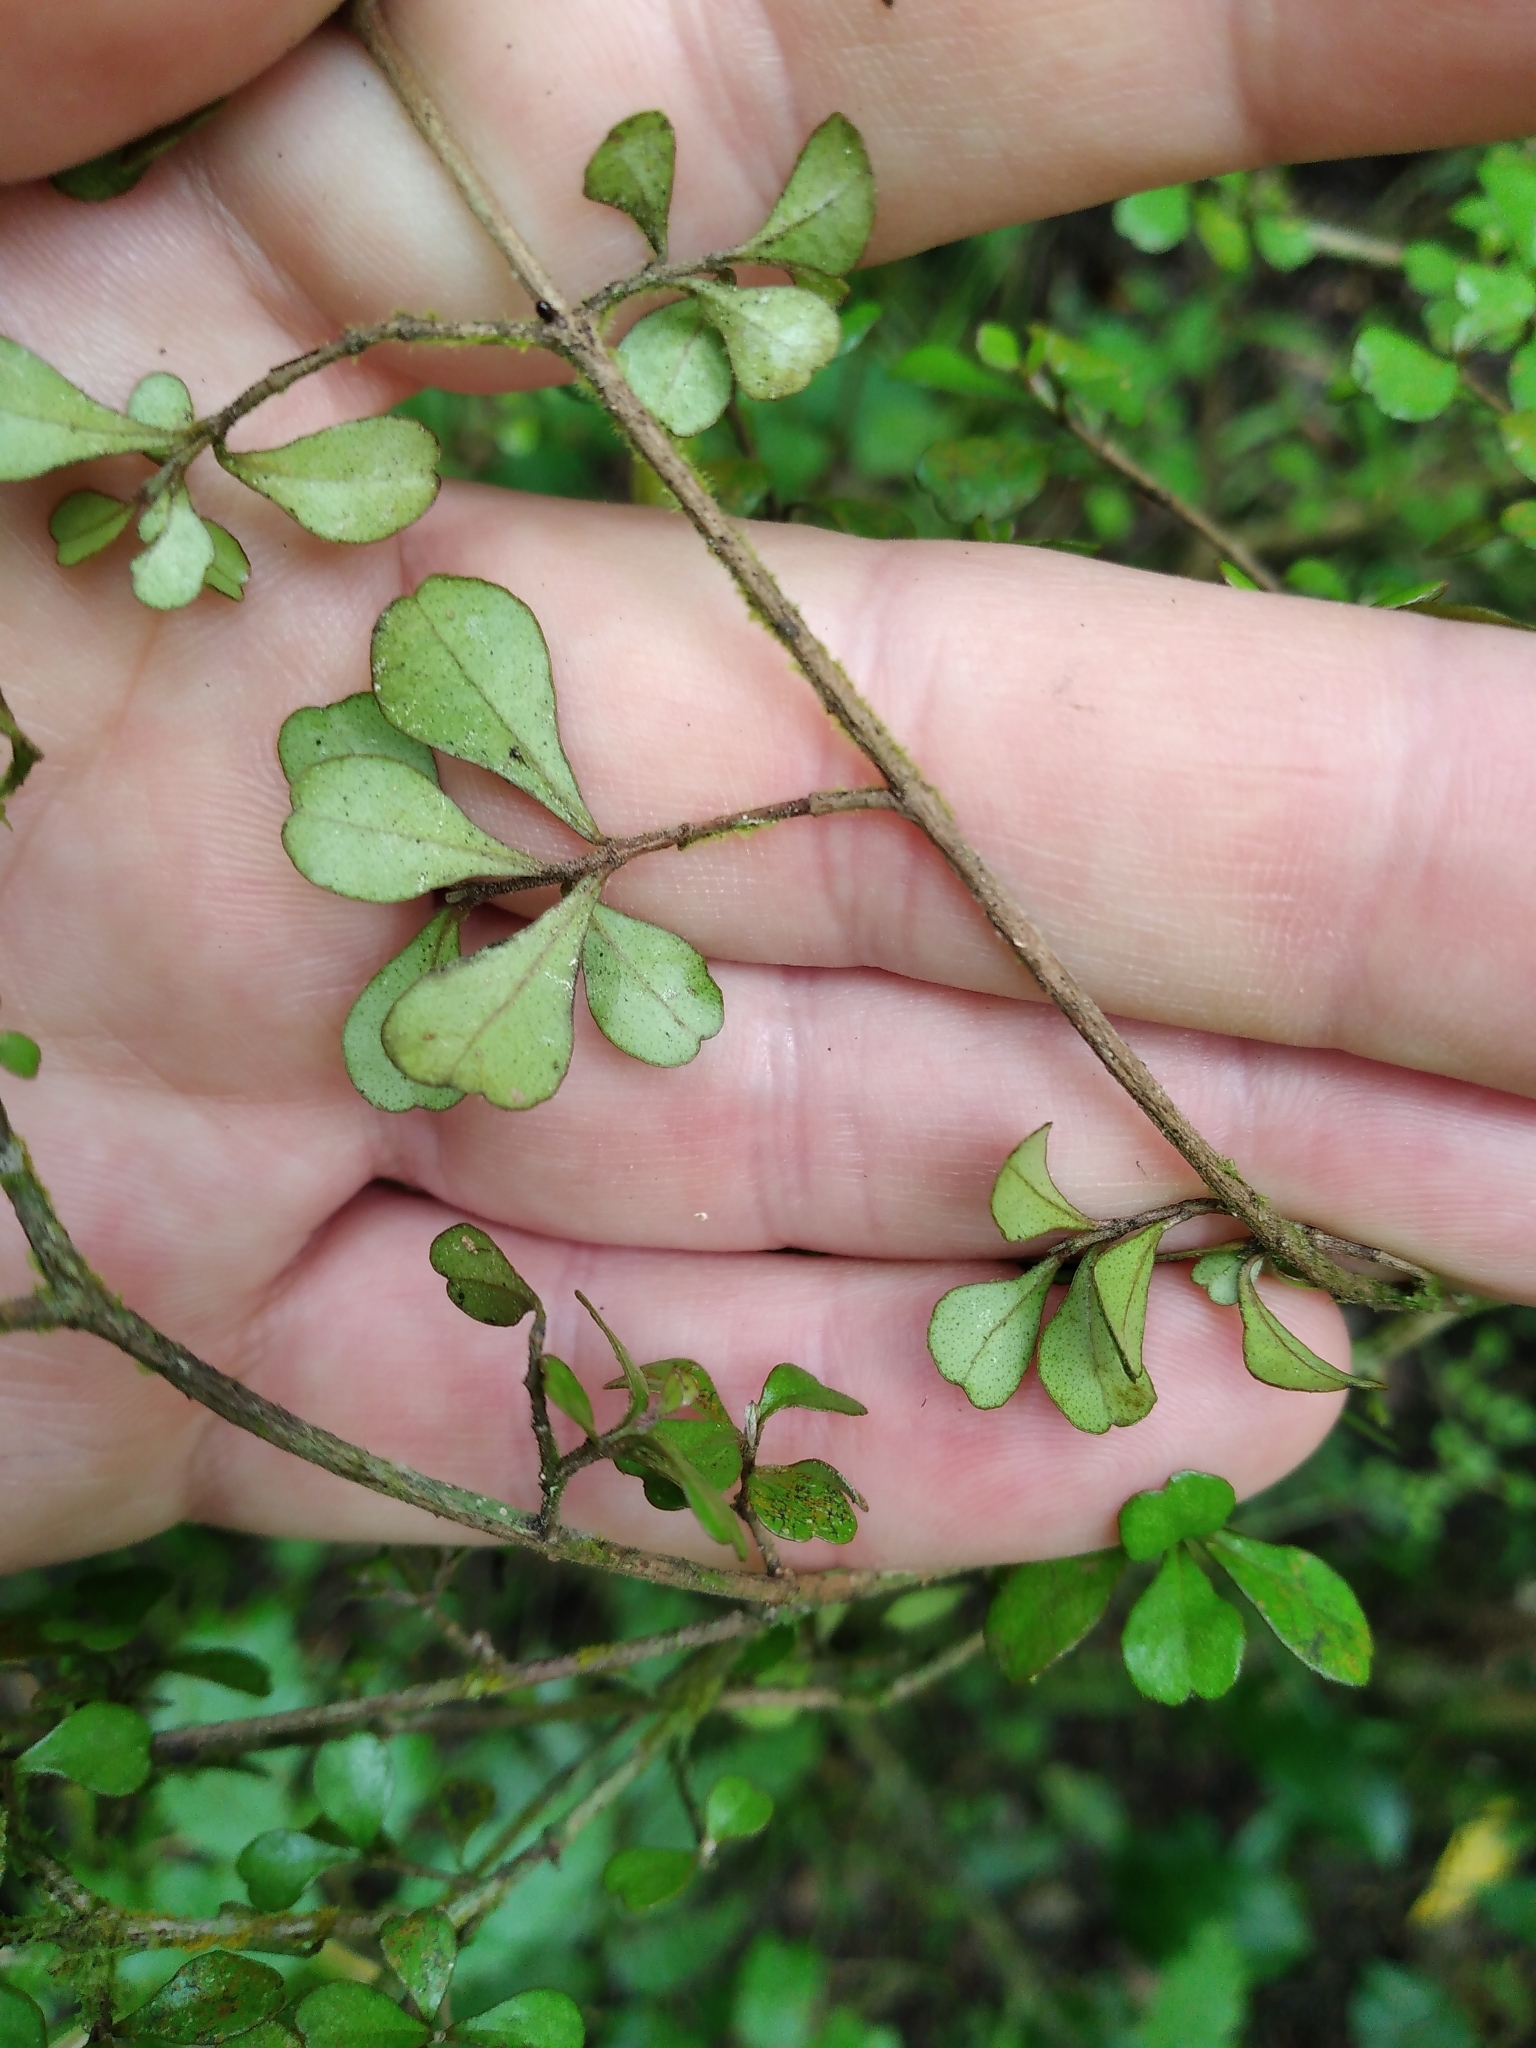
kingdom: Plantae
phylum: Tracheophyta
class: Magnoliopsida
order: Myrtales
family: Myrtaceae
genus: Lophomyrtus
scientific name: Lophomyrtus obcordata
